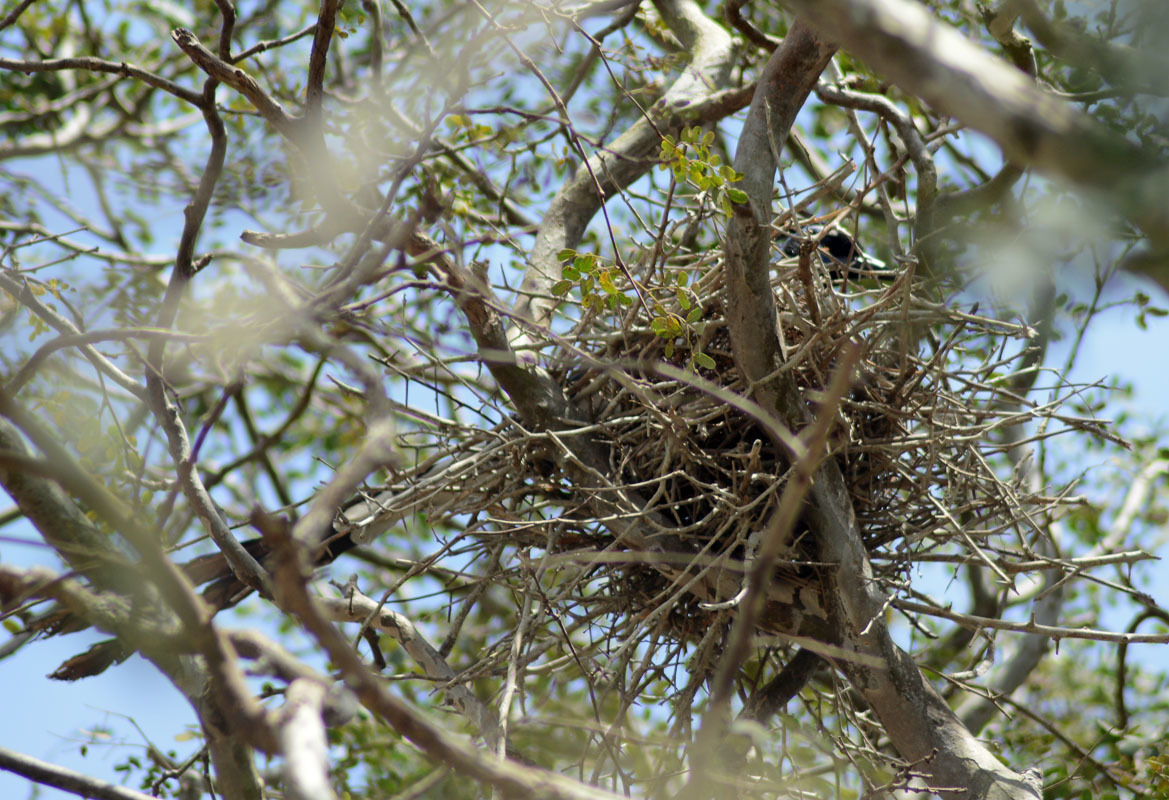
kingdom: Animalia
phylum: Chordata
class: Aves
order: Passeriformes
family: Corvidae
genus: Calocitta
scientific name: Calocitta colliei
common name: Black-throated magpie-jay
